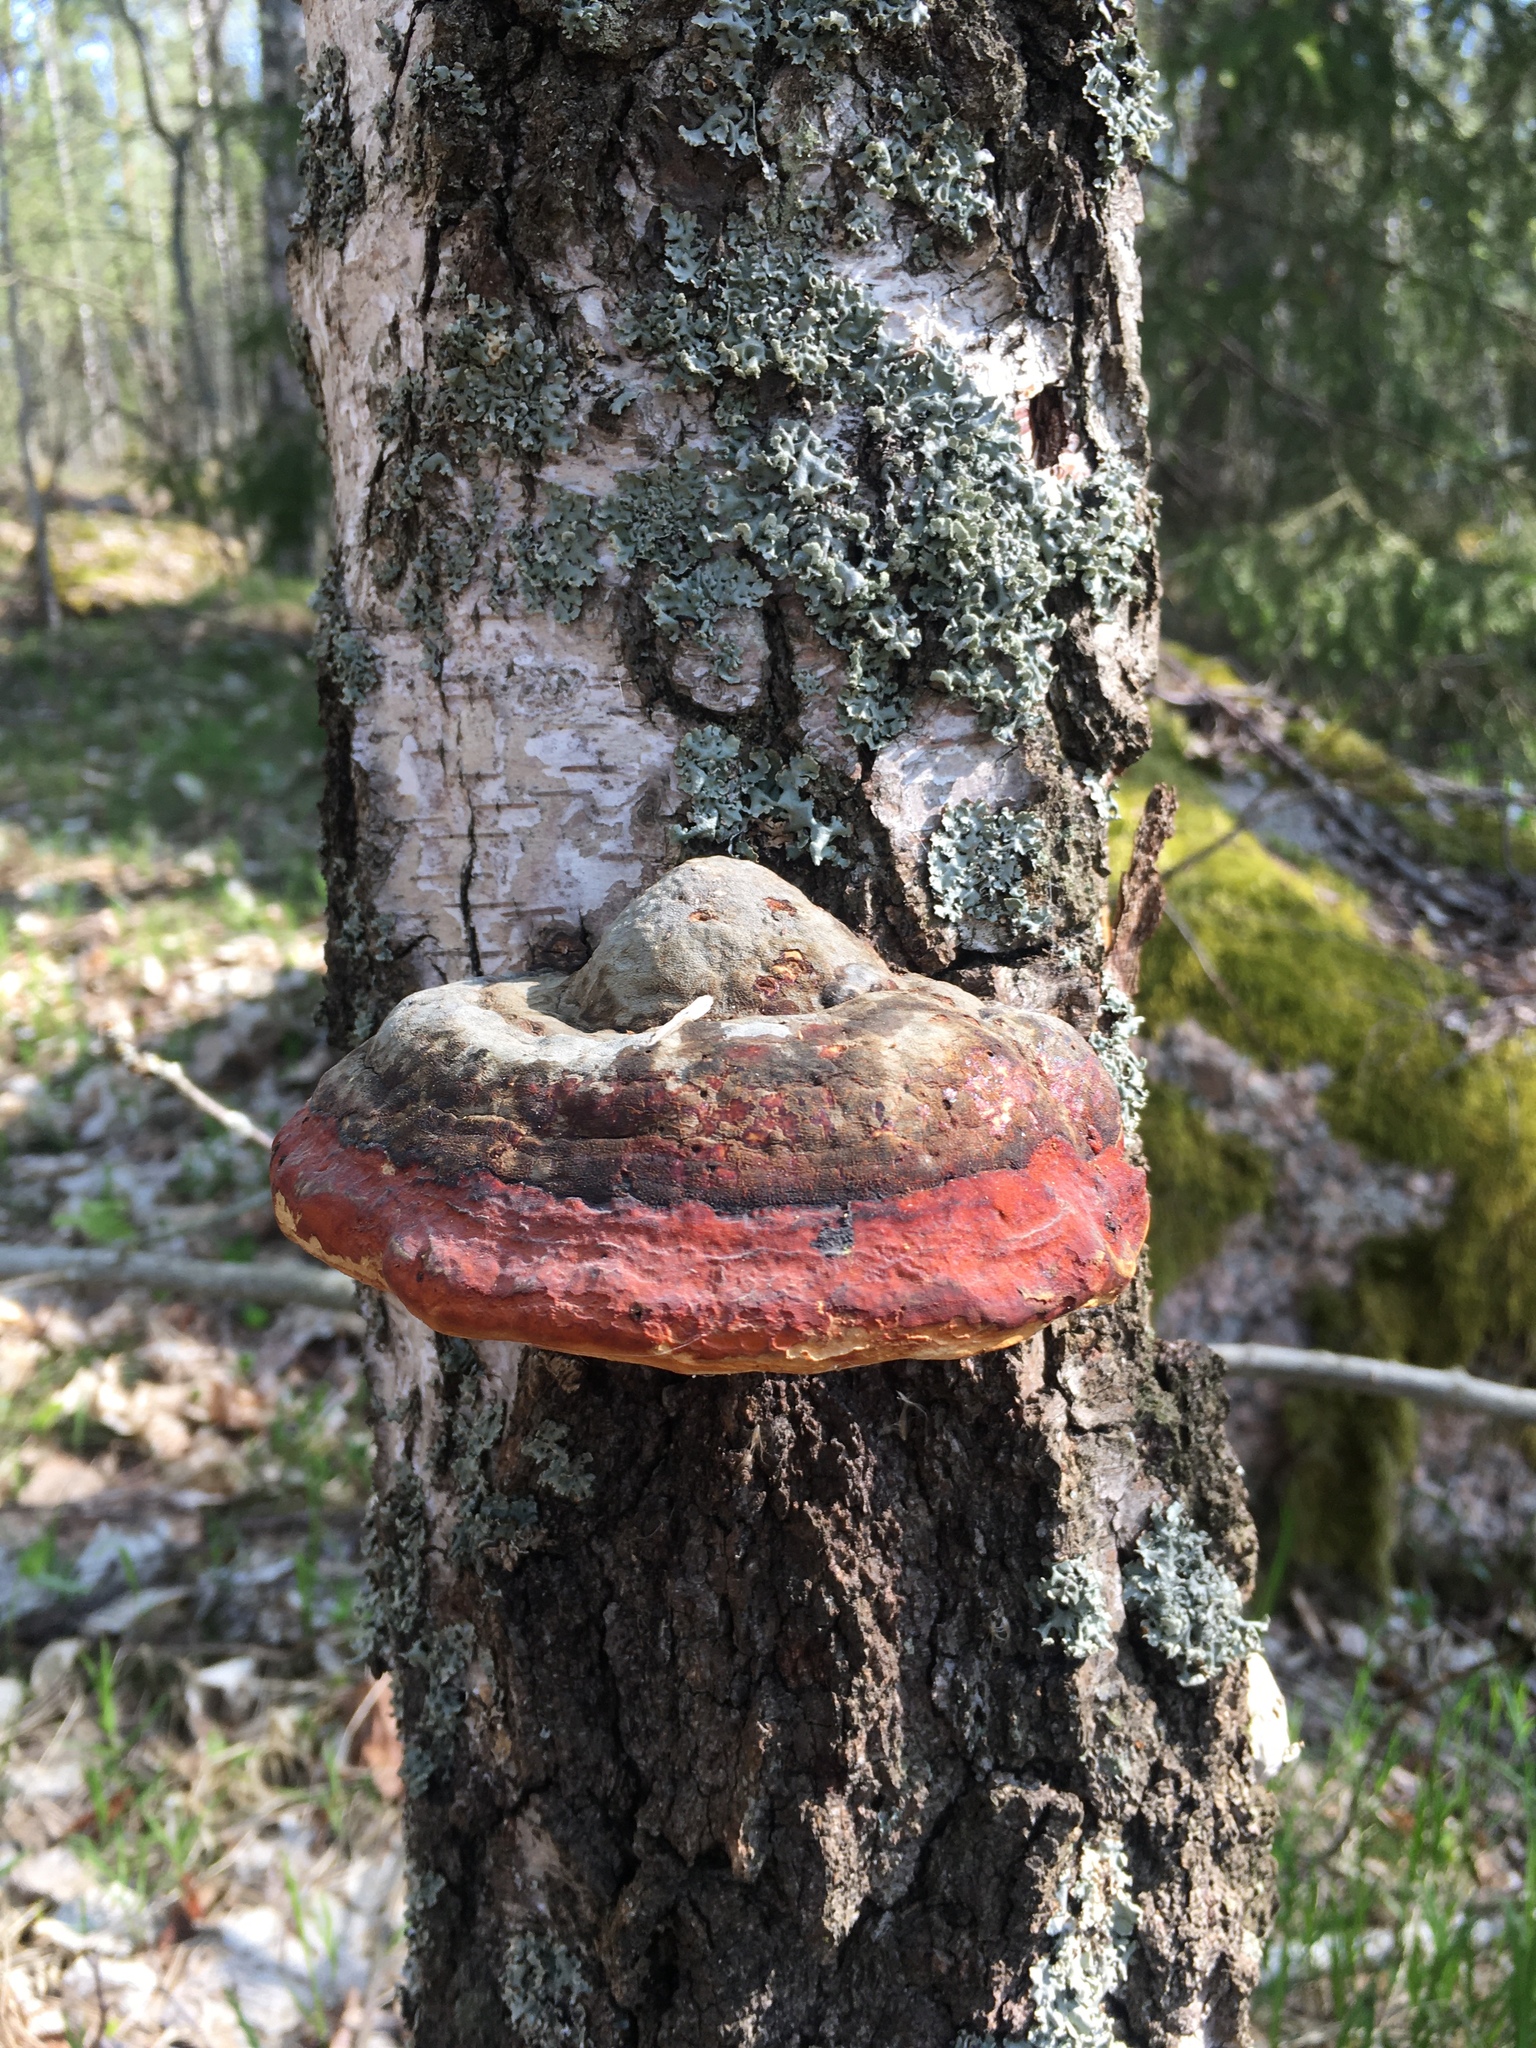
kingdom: Fungi
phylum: Basidiomycota
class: Agaricomycetes
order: Polyporales
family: Fomitopsidaceae
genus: Fomitopsis
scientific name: Fomitopsis pinicola
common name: Red-belted bracket
